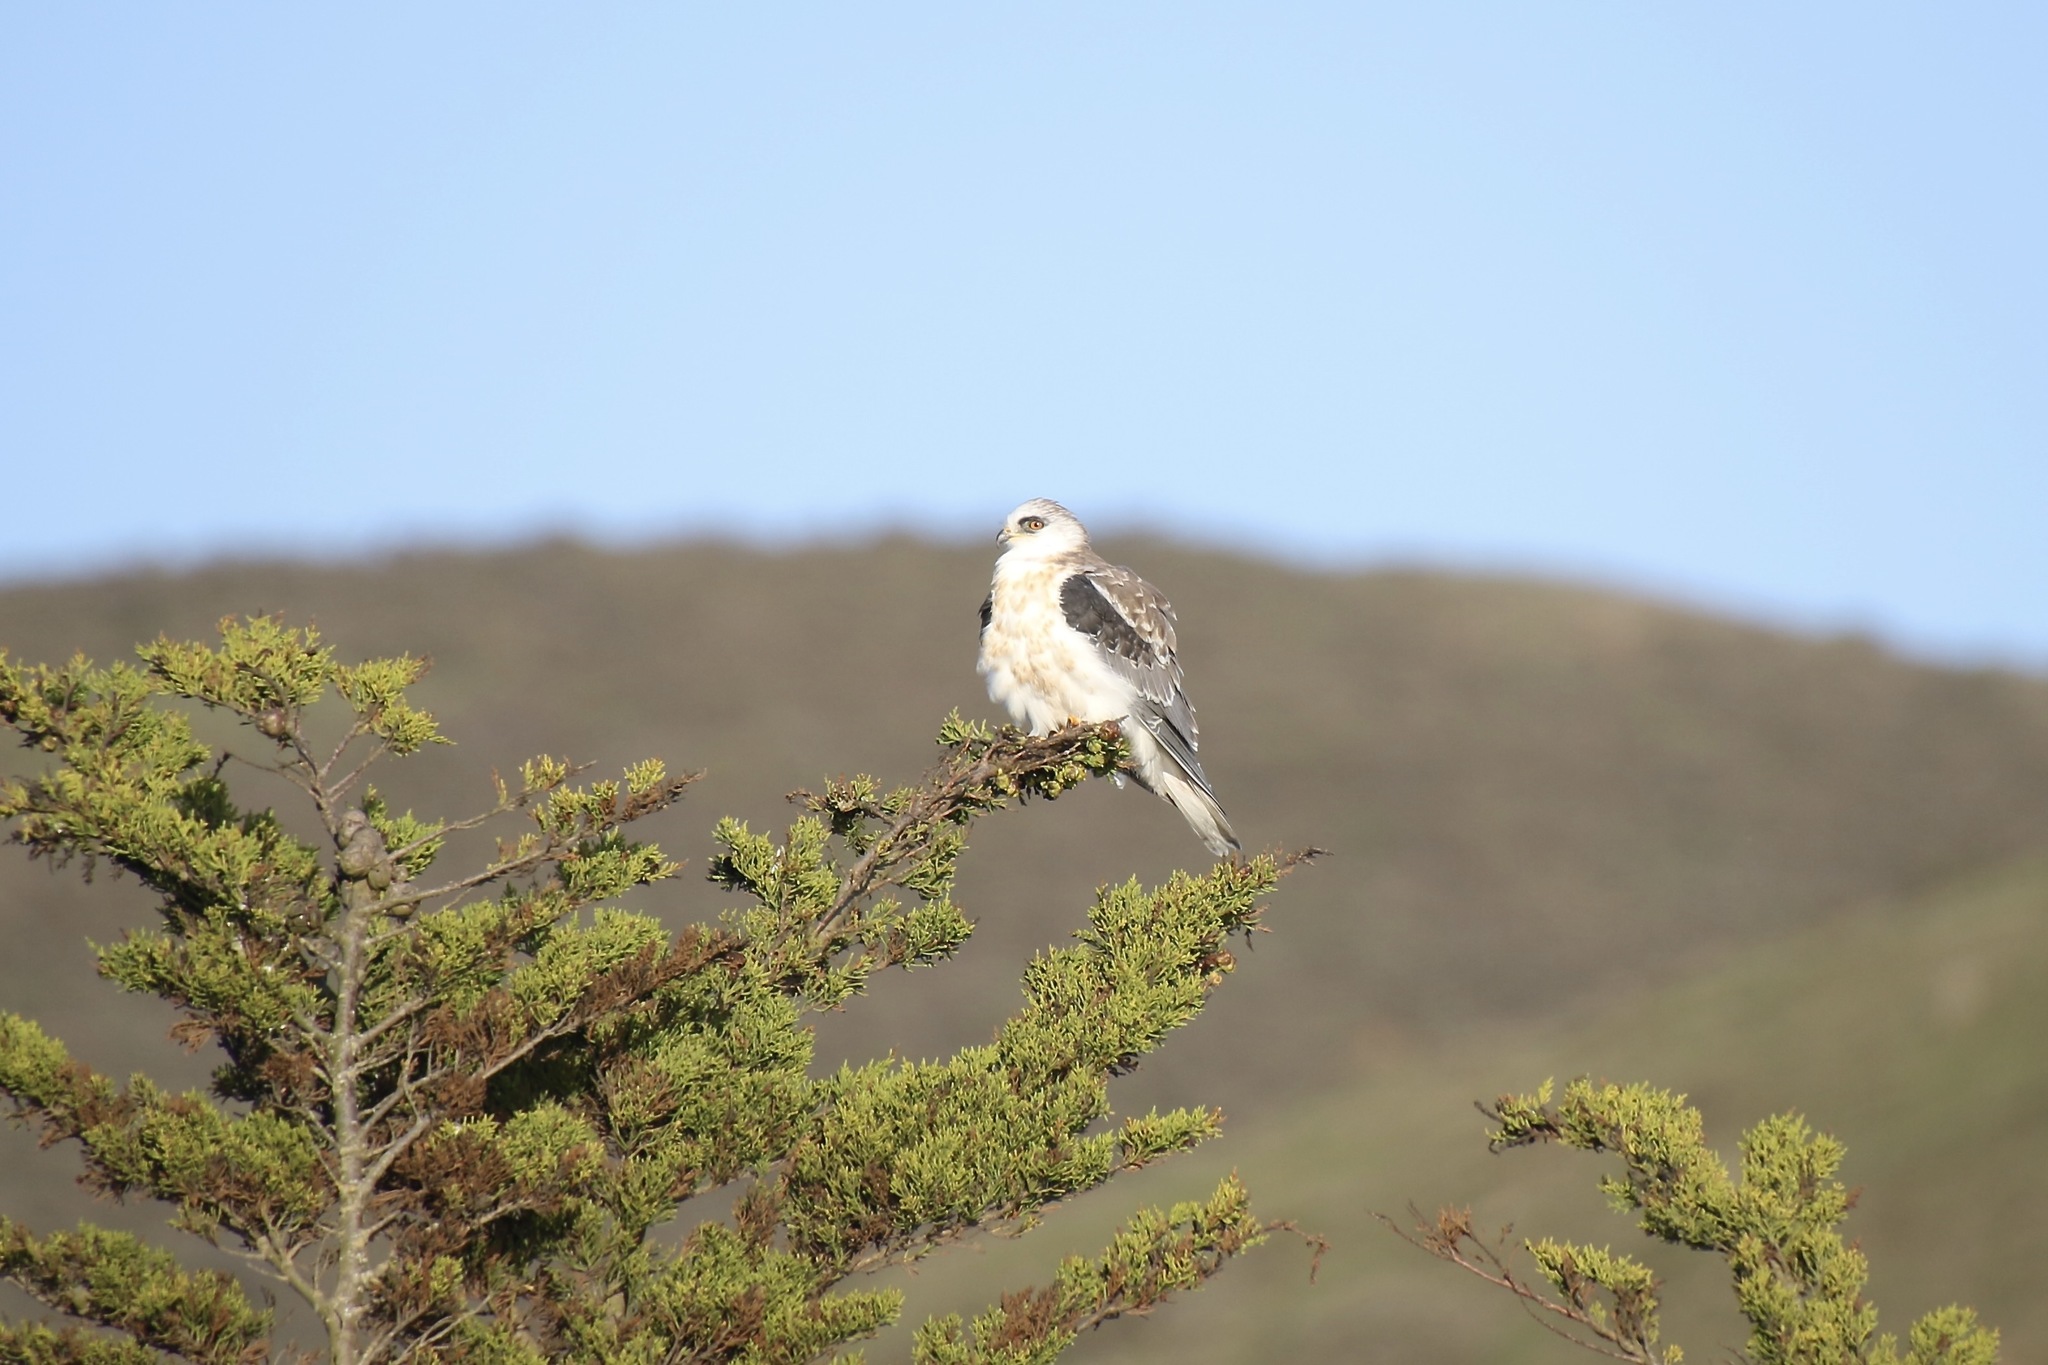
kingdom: Animalia
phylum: Chordata
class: Aves
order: Accipitriformes
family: Accipitridae
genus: Elanus
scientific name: Elanus leucurus
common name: White-tailed kite
